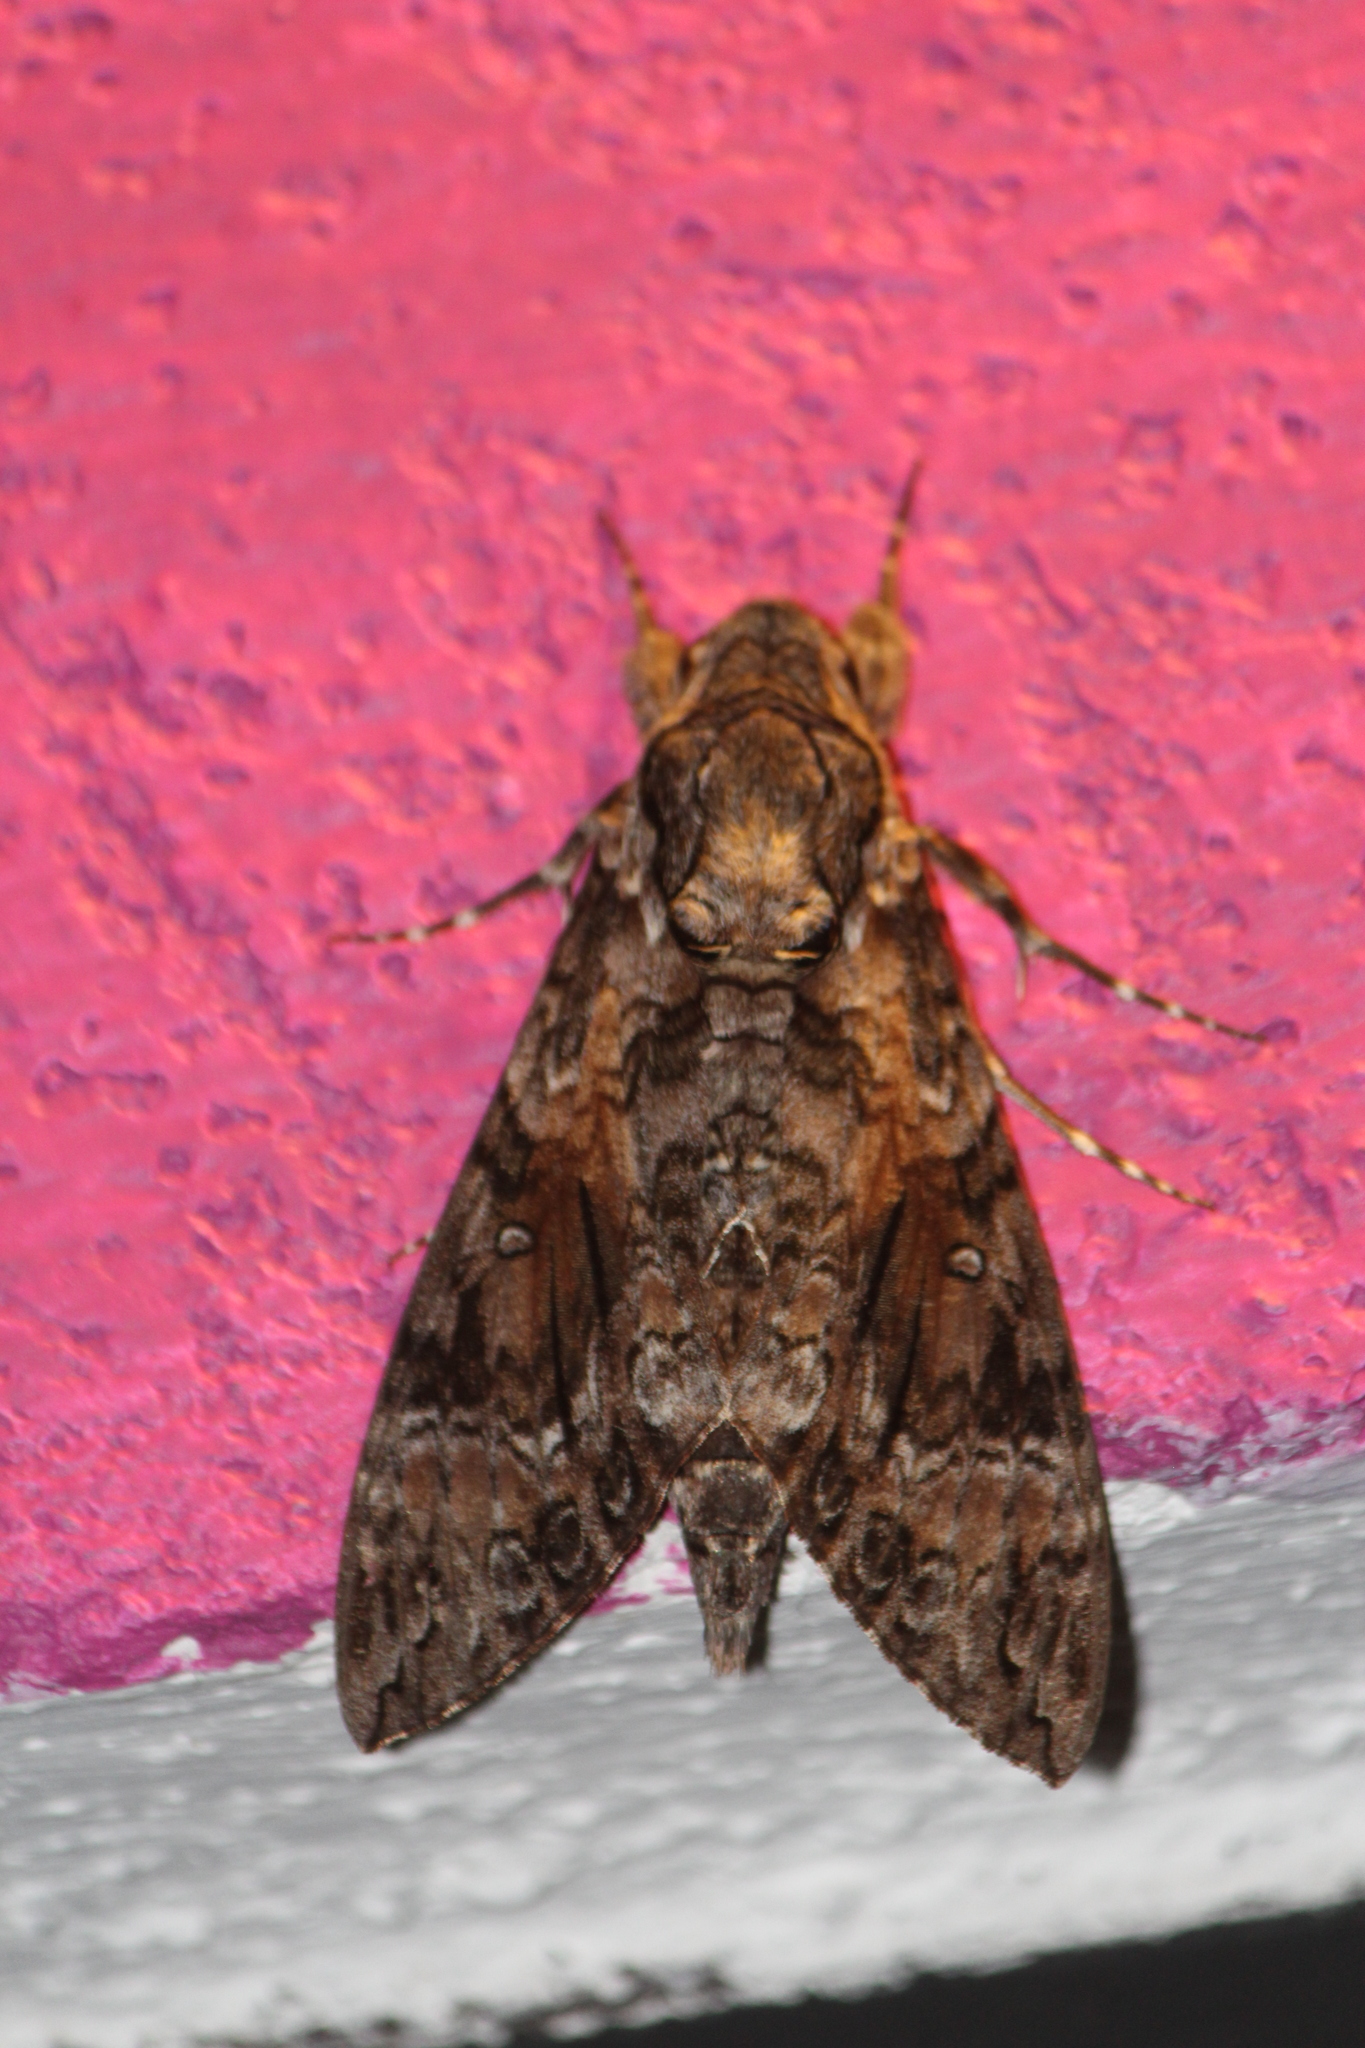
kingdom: Animalia
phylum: Arthropoda
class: Insecta
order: Lepidoptera
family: Sphingidae
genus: Agrius
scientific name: Agrius cingulata
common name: Pink-spotted hawkmoth
